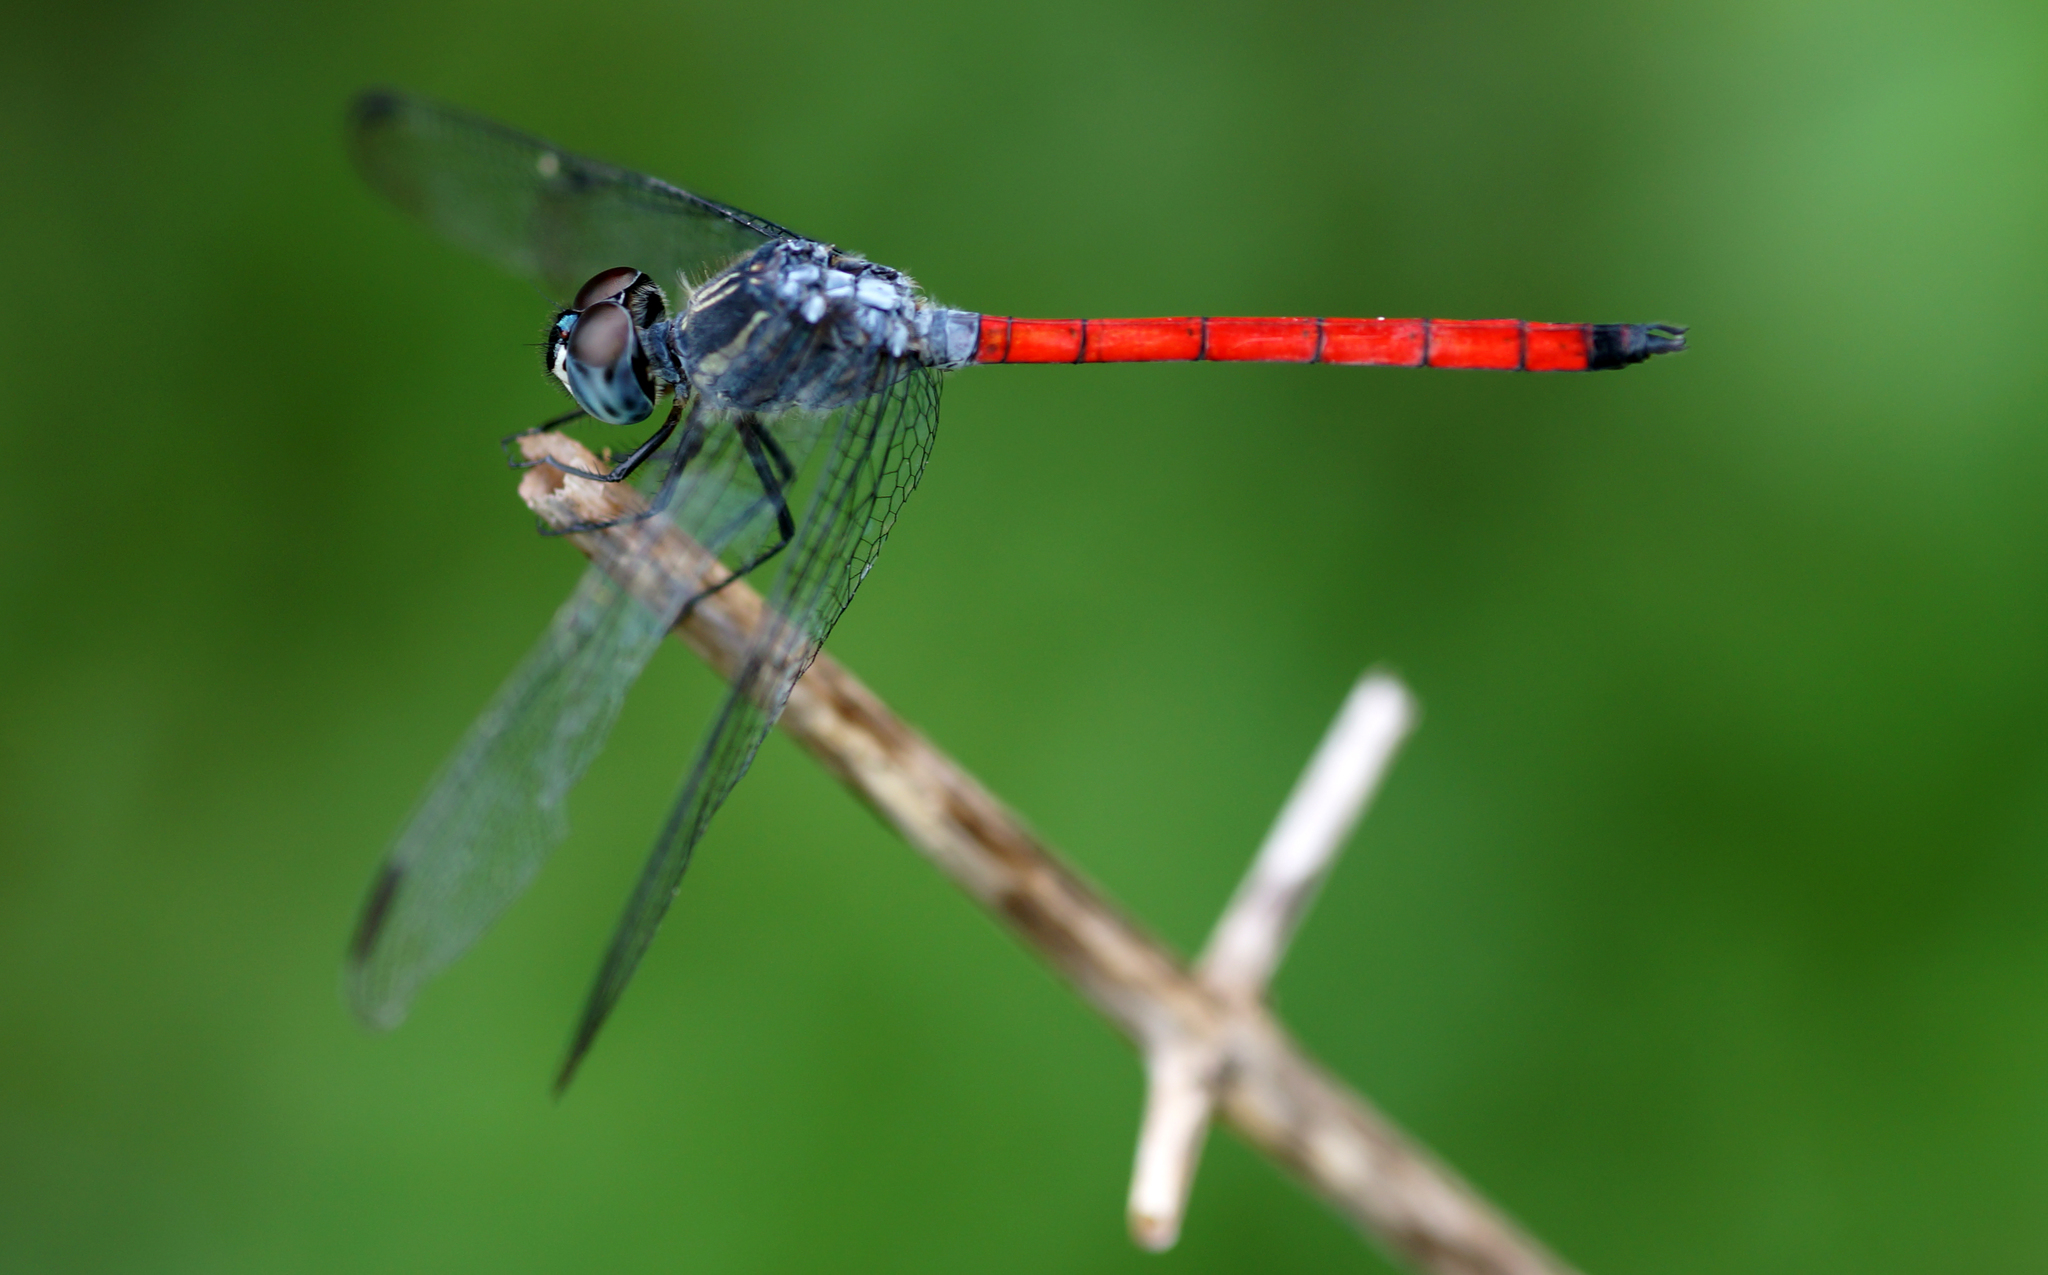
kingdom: Animalia
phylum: Arthropoda
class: Insecta
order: Odonata
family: Libellulidae
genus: Lathrecista
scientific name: Lathrecista asiatica
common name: Scarlet grenadier
